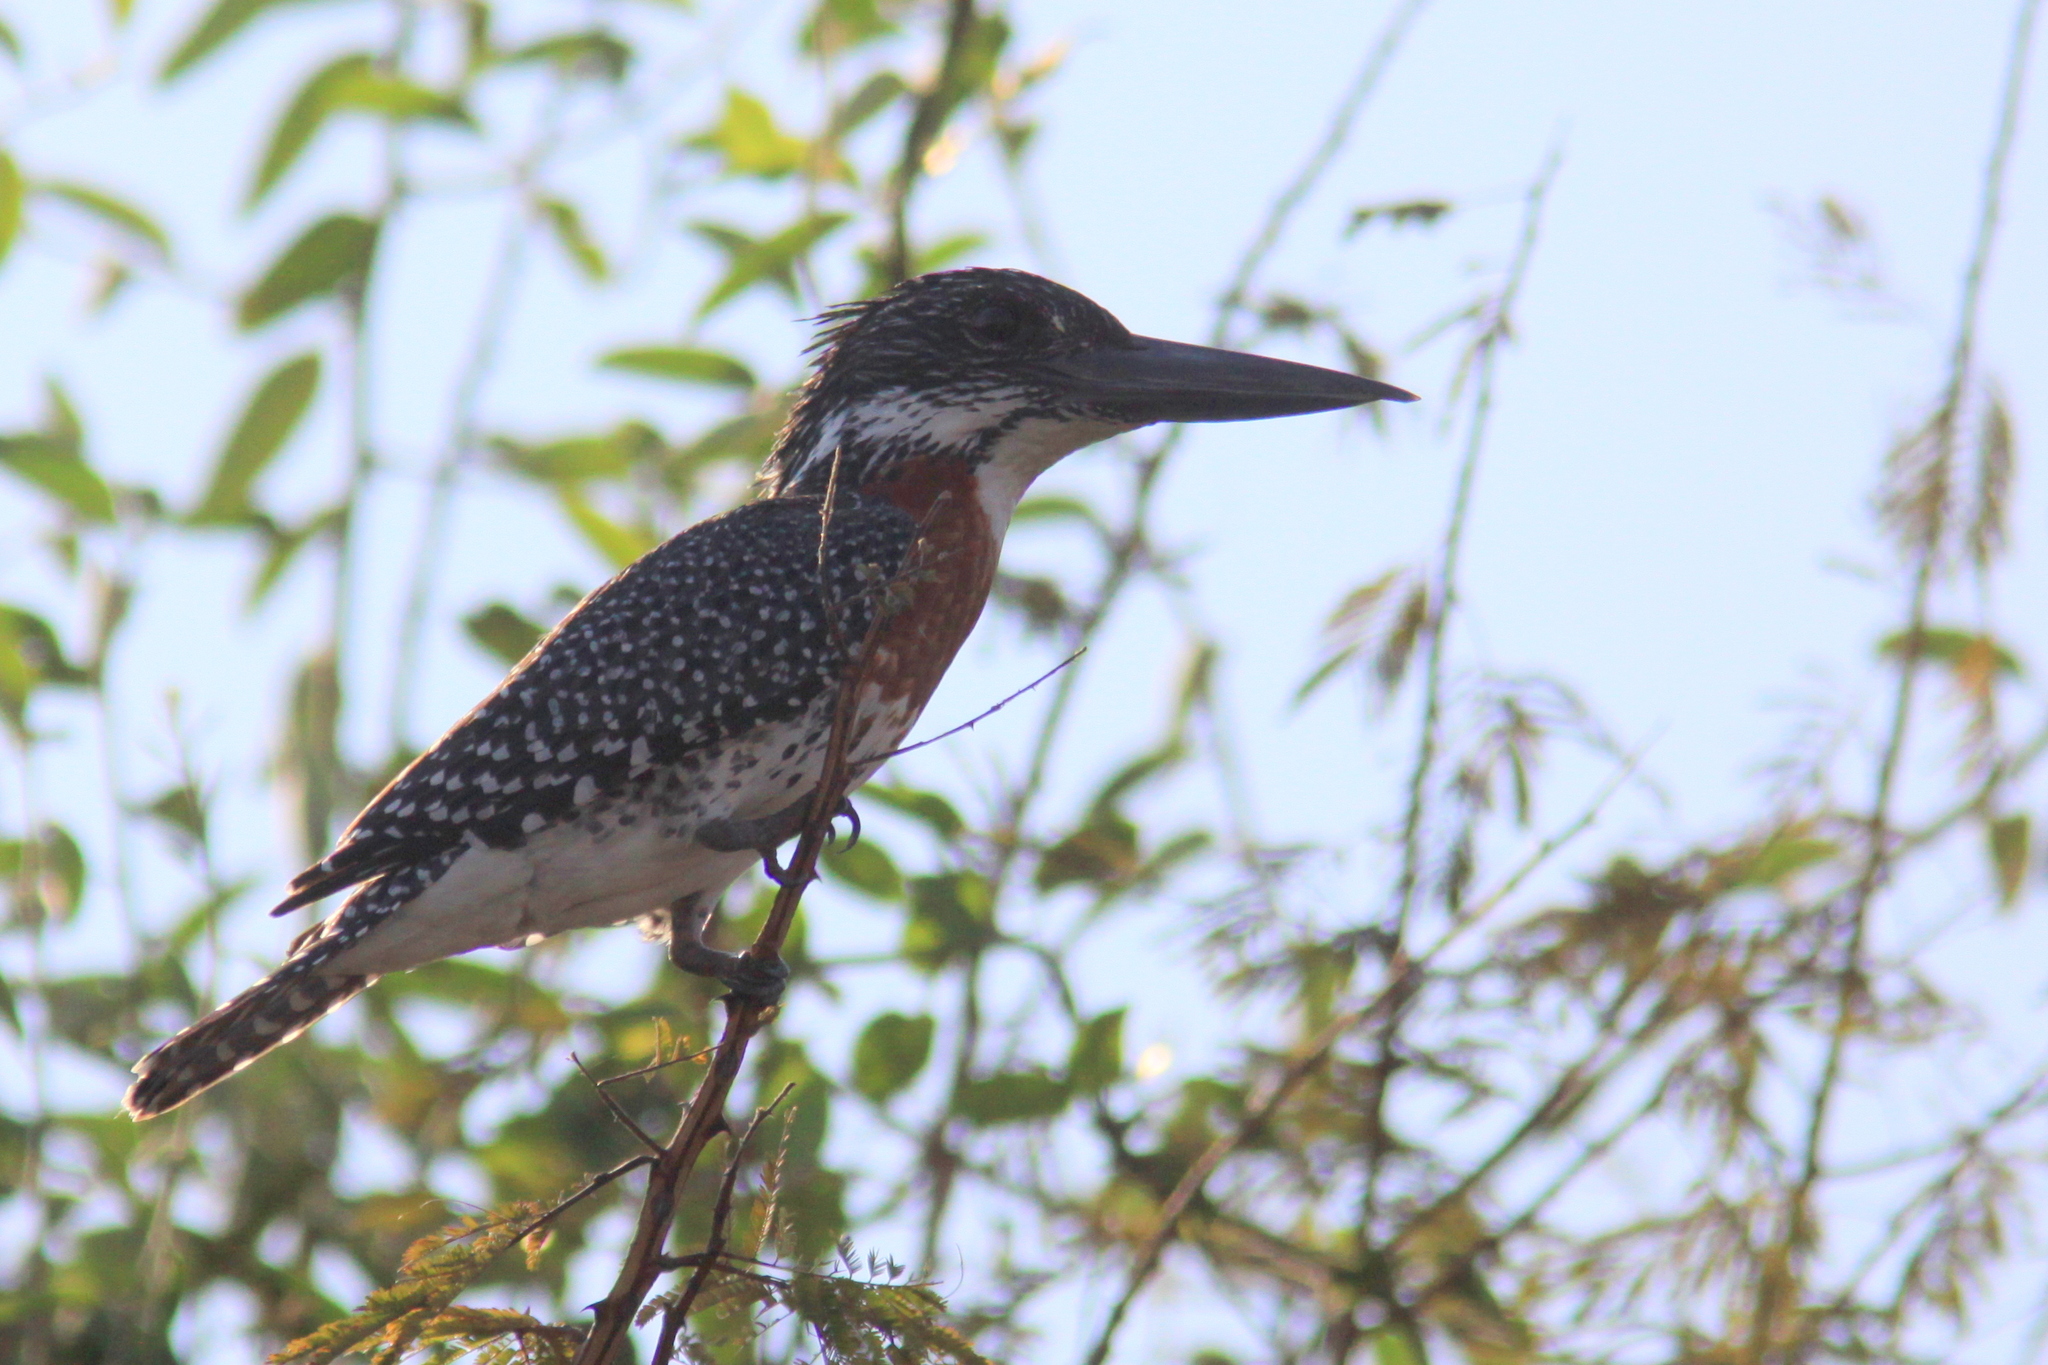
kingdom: Animalia
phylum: Chordata
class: Aves
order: Coraciiformes
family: Alcedinidae
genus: Megaceryle
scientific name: Megaceryle maxima
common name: Giant kingfisher
